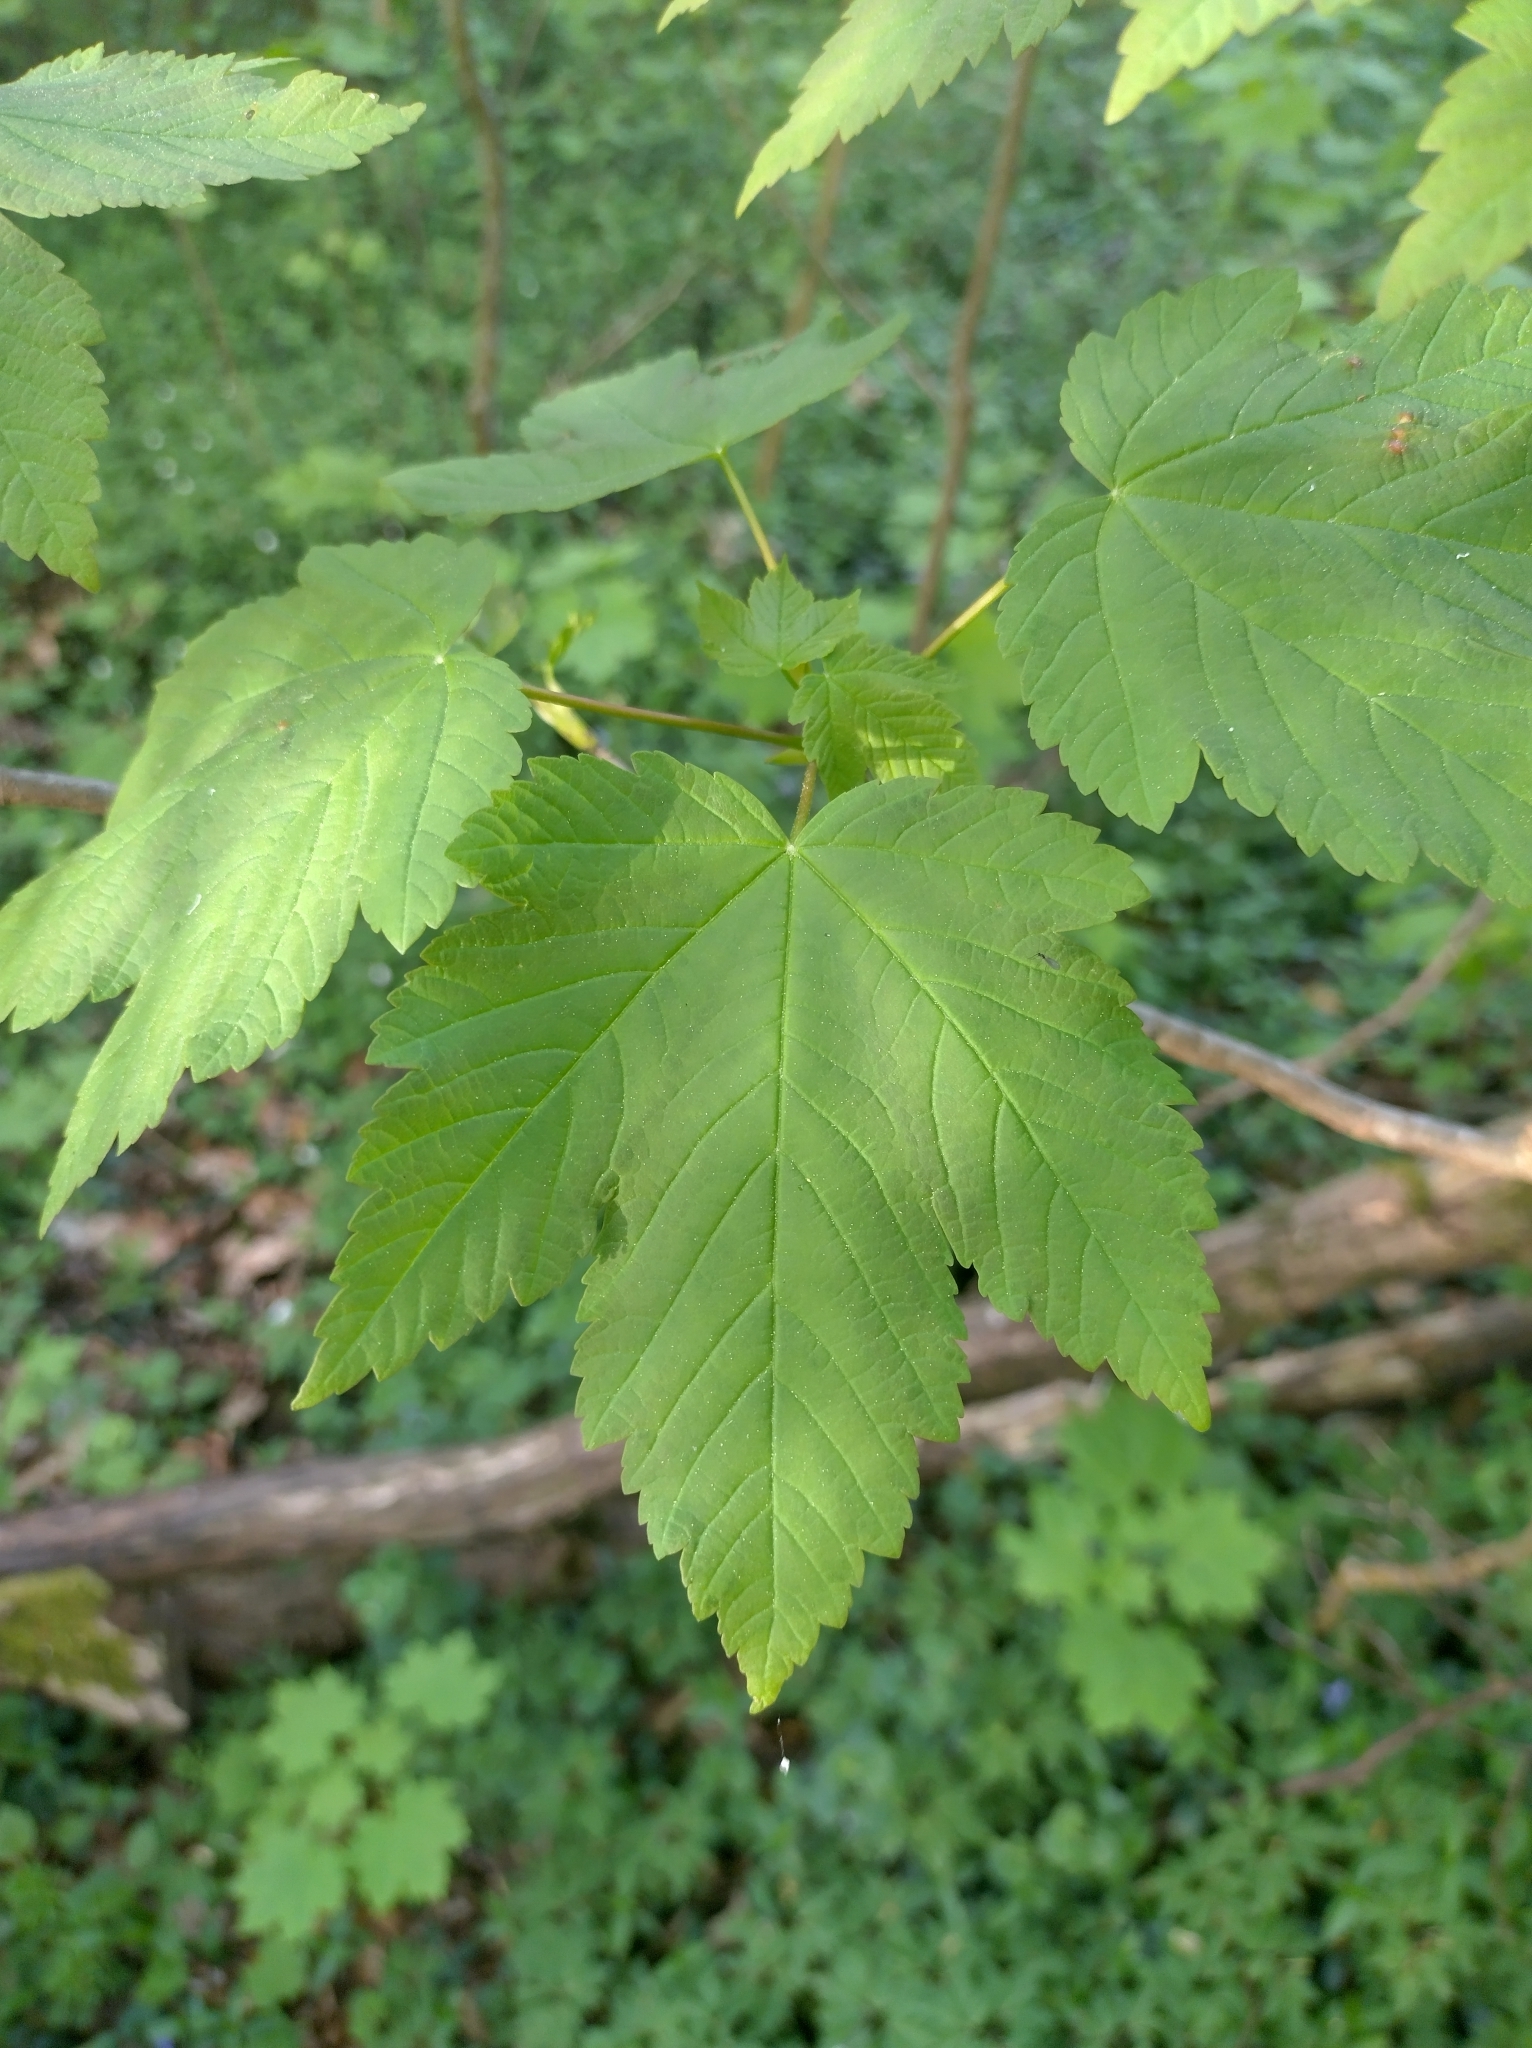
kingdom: Plantae
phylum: Tracheophyta
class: Magnoliopsida
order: Sapindales
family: Sapindaceae
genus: Acer
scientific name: Acer pseudoplatanus
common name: Sycamore
